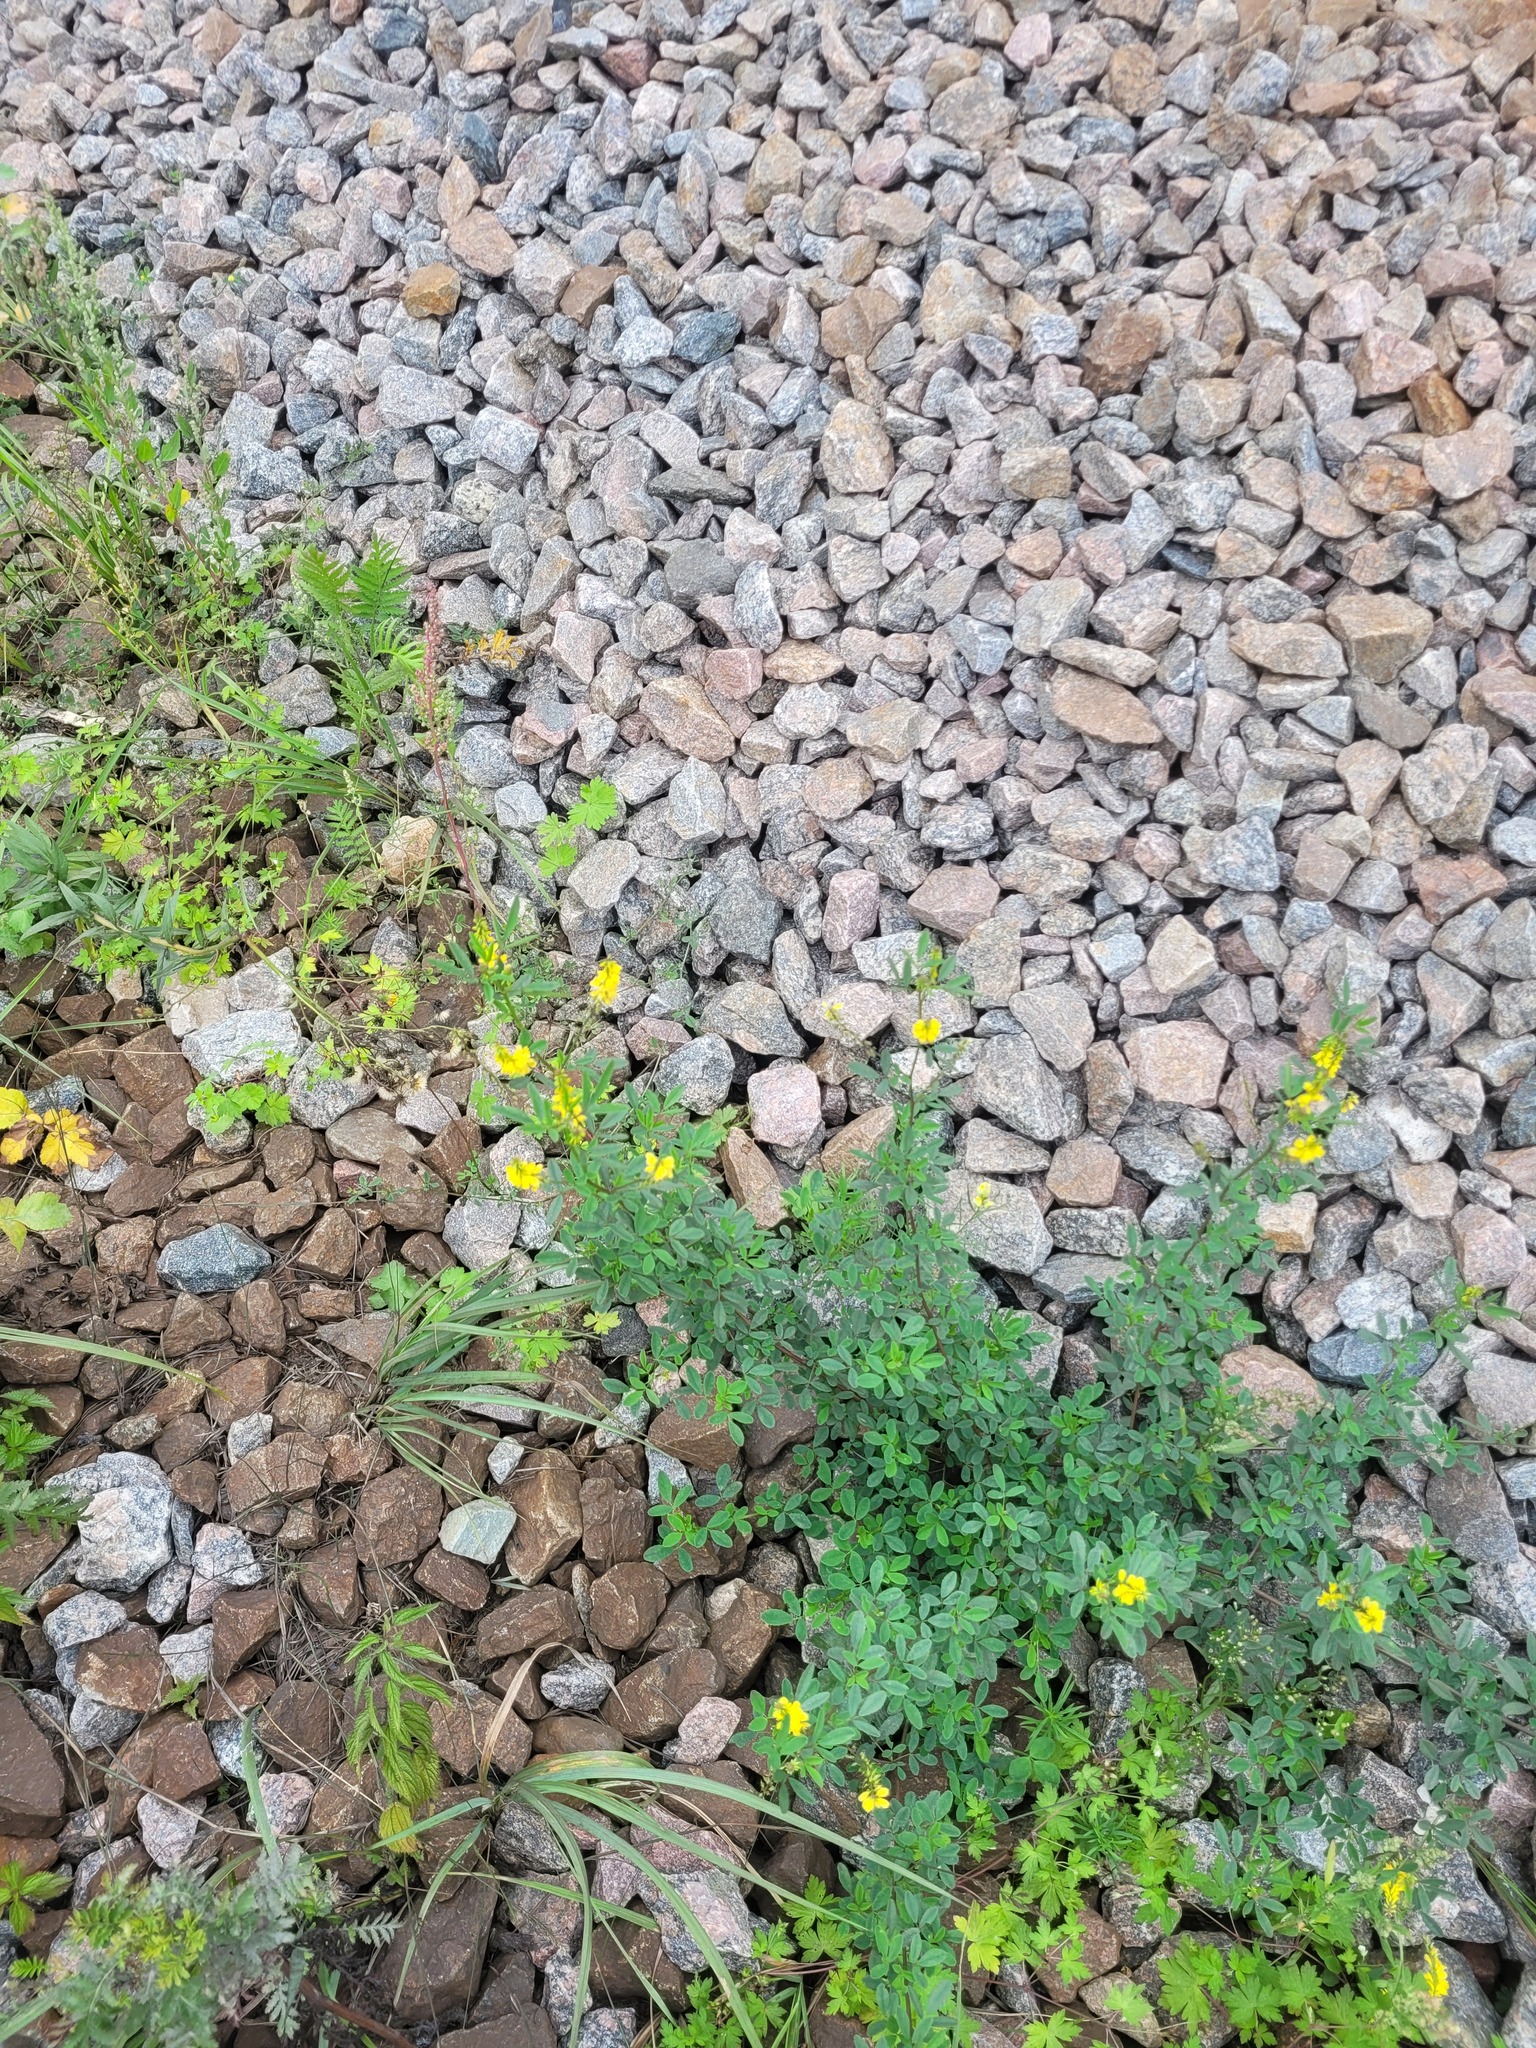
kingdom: Plantae
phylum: Tracheophyta
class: Magnoliopsida
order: Fabales
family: Fabaceae
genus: Melilotus
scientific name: Melilotus officinalis
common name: Sweetclover
